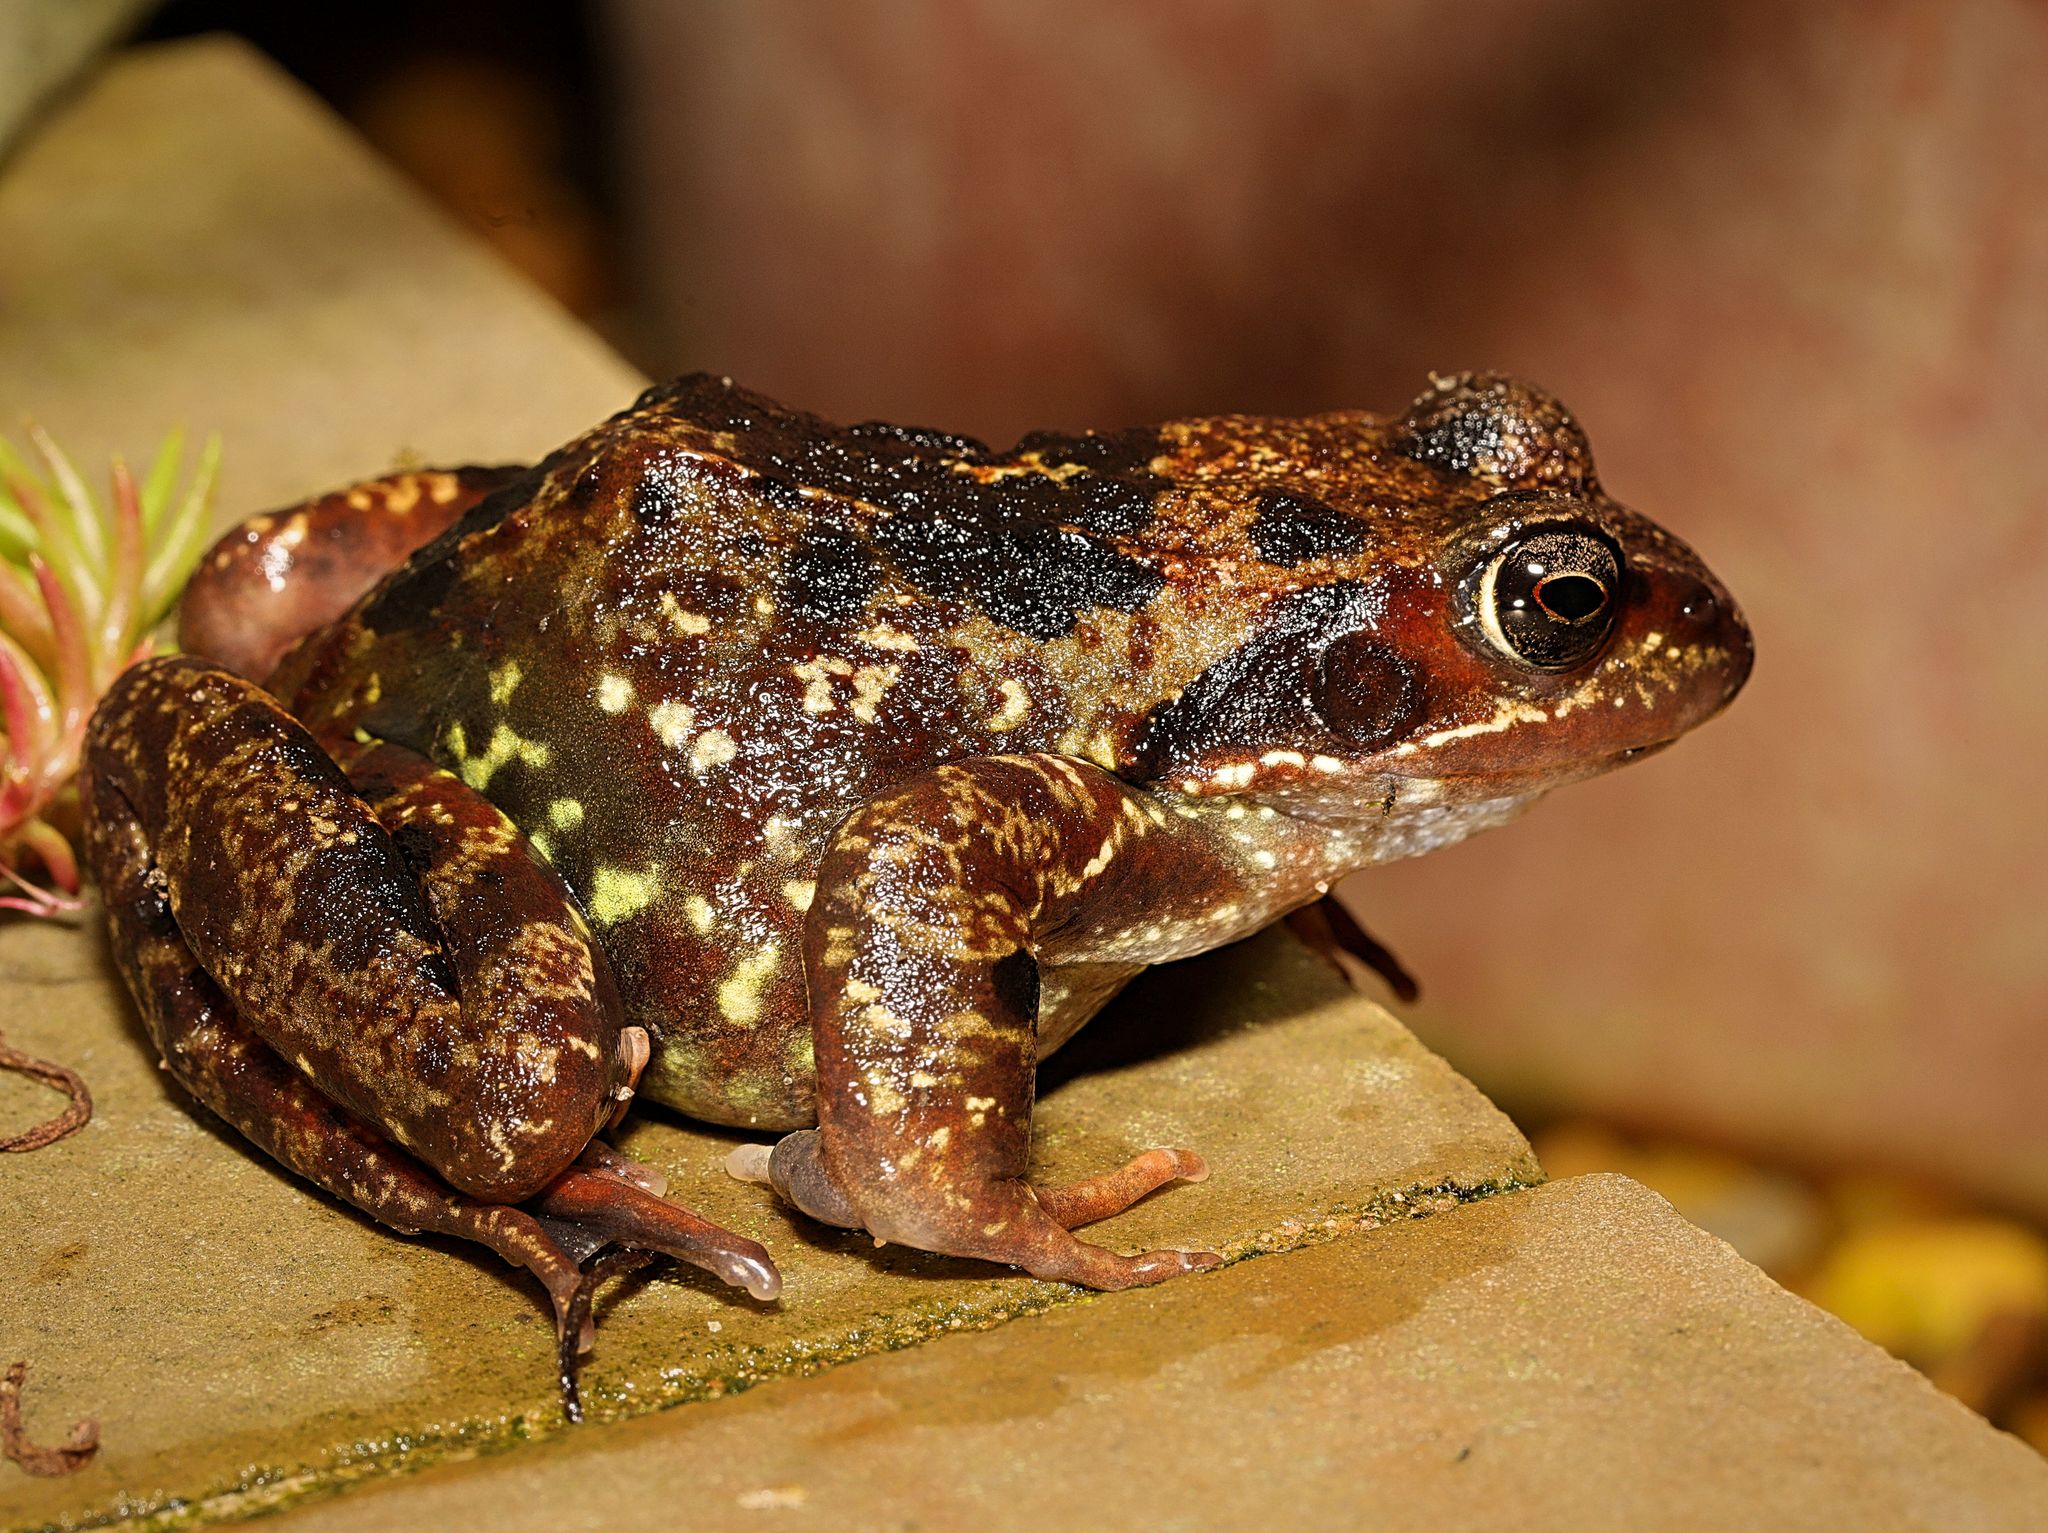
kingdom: Animalia
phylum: Chordata
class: Amphibia
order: Anura
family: Ranidae
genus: Rana
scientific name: Rana temporaria
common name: Common frog
